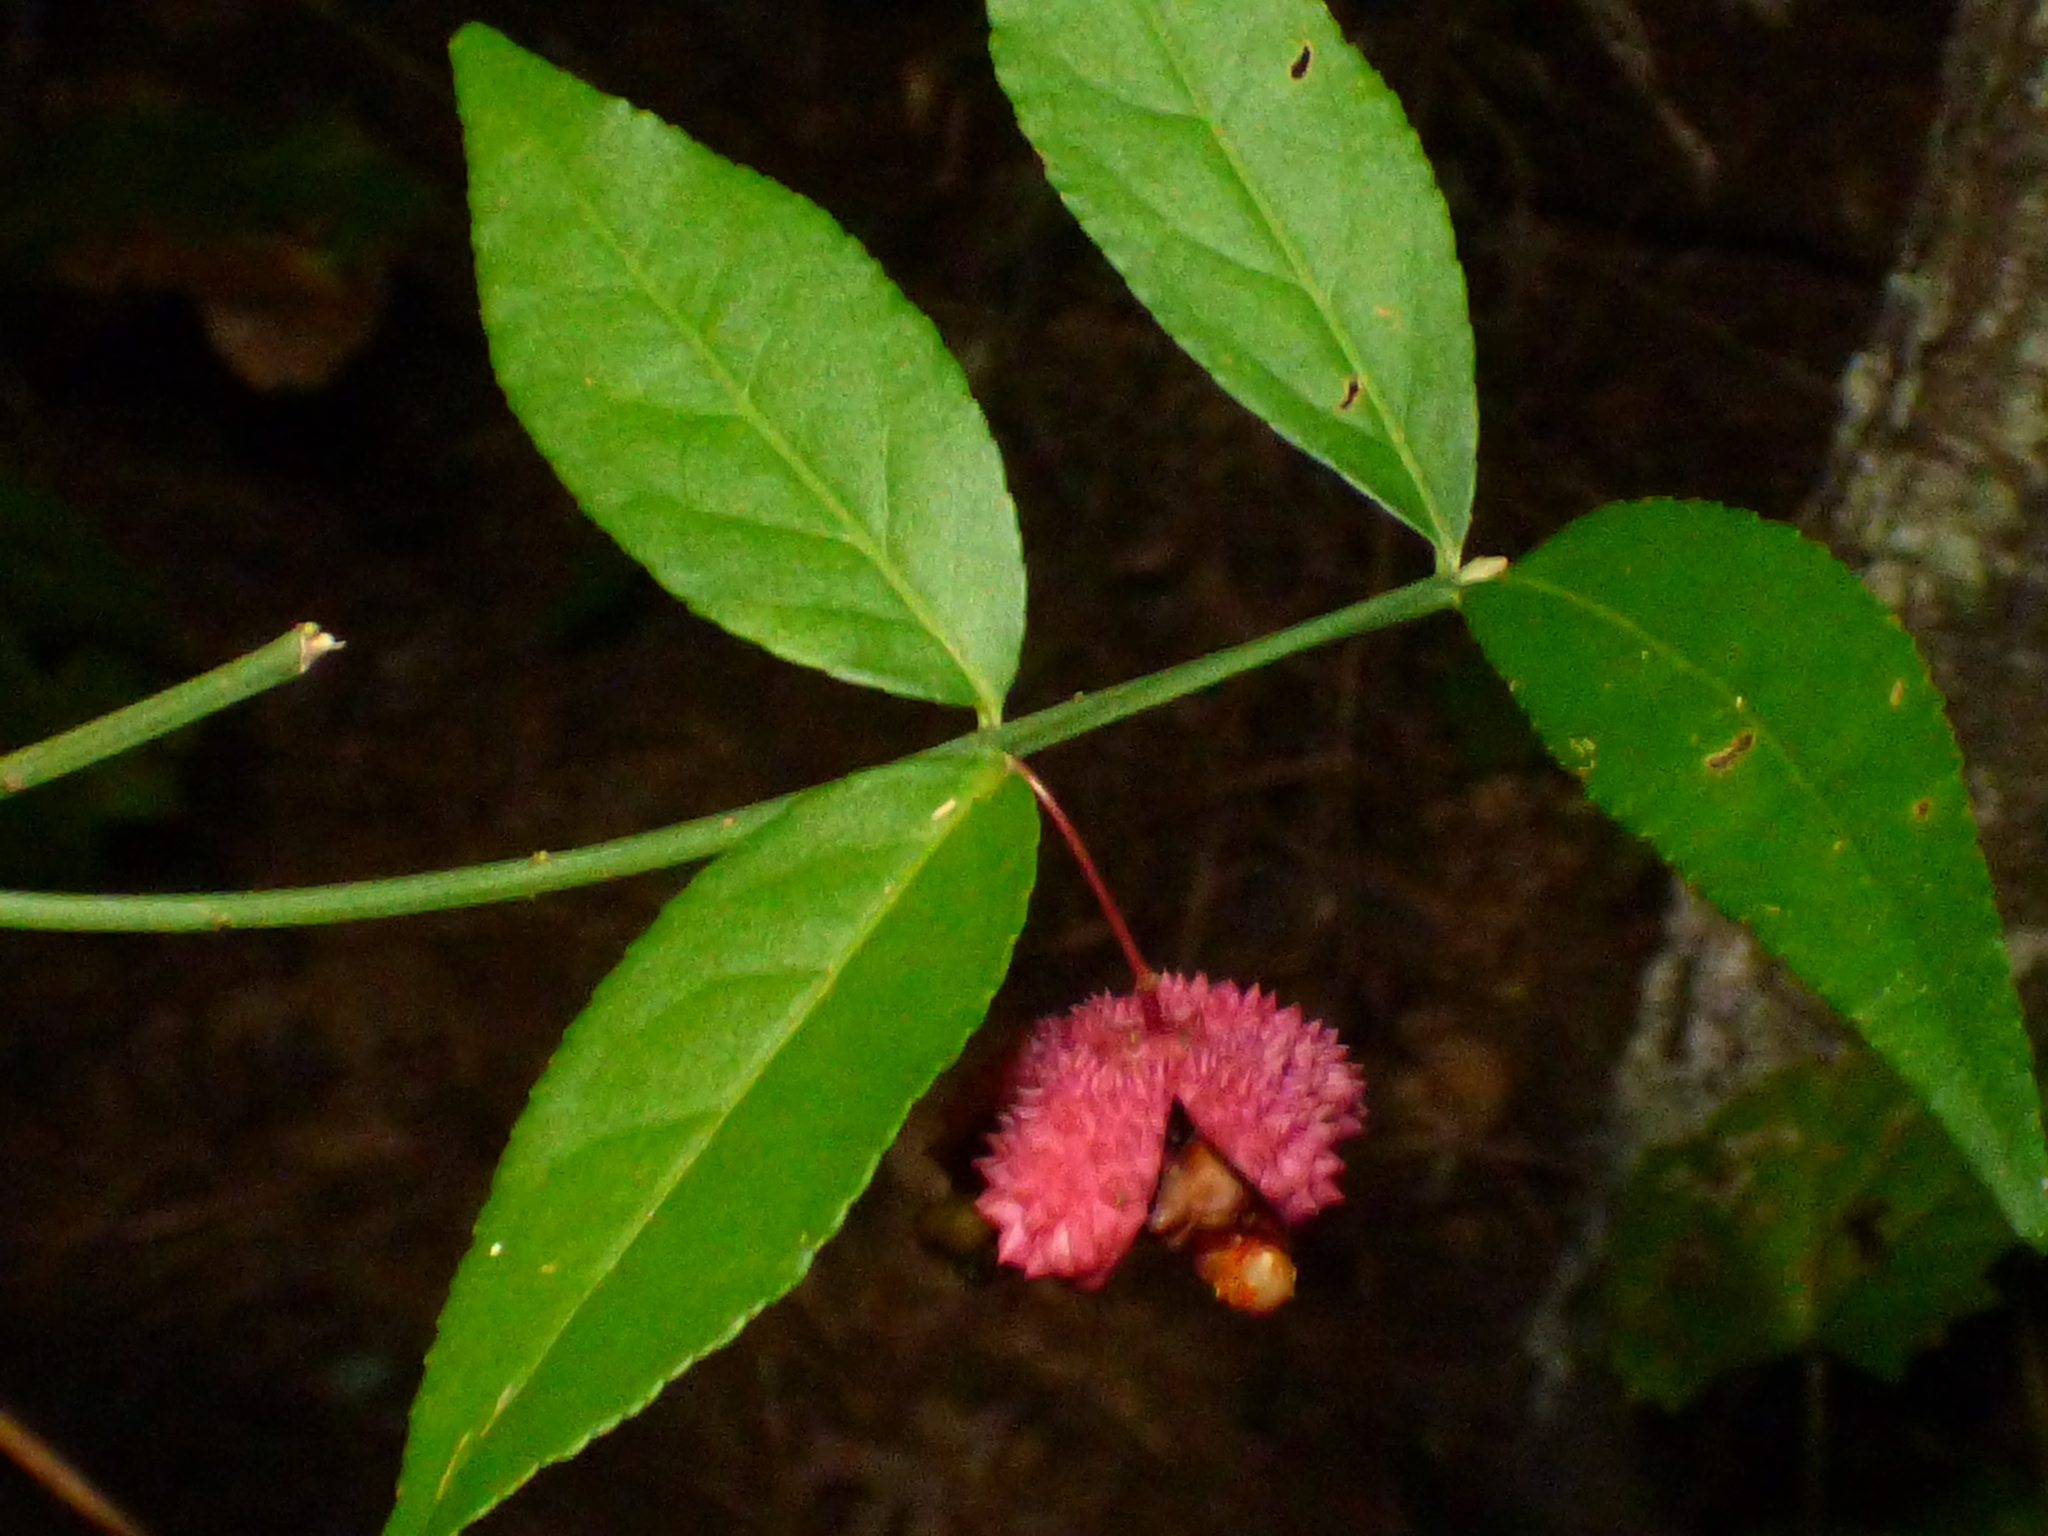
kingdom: Plantae
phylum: Tracheophyta
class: Magnoliopsida
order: Celastrales
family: Celastraceae
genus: Euonymus
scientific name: Euonymus americanus
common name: Bursting-heart
